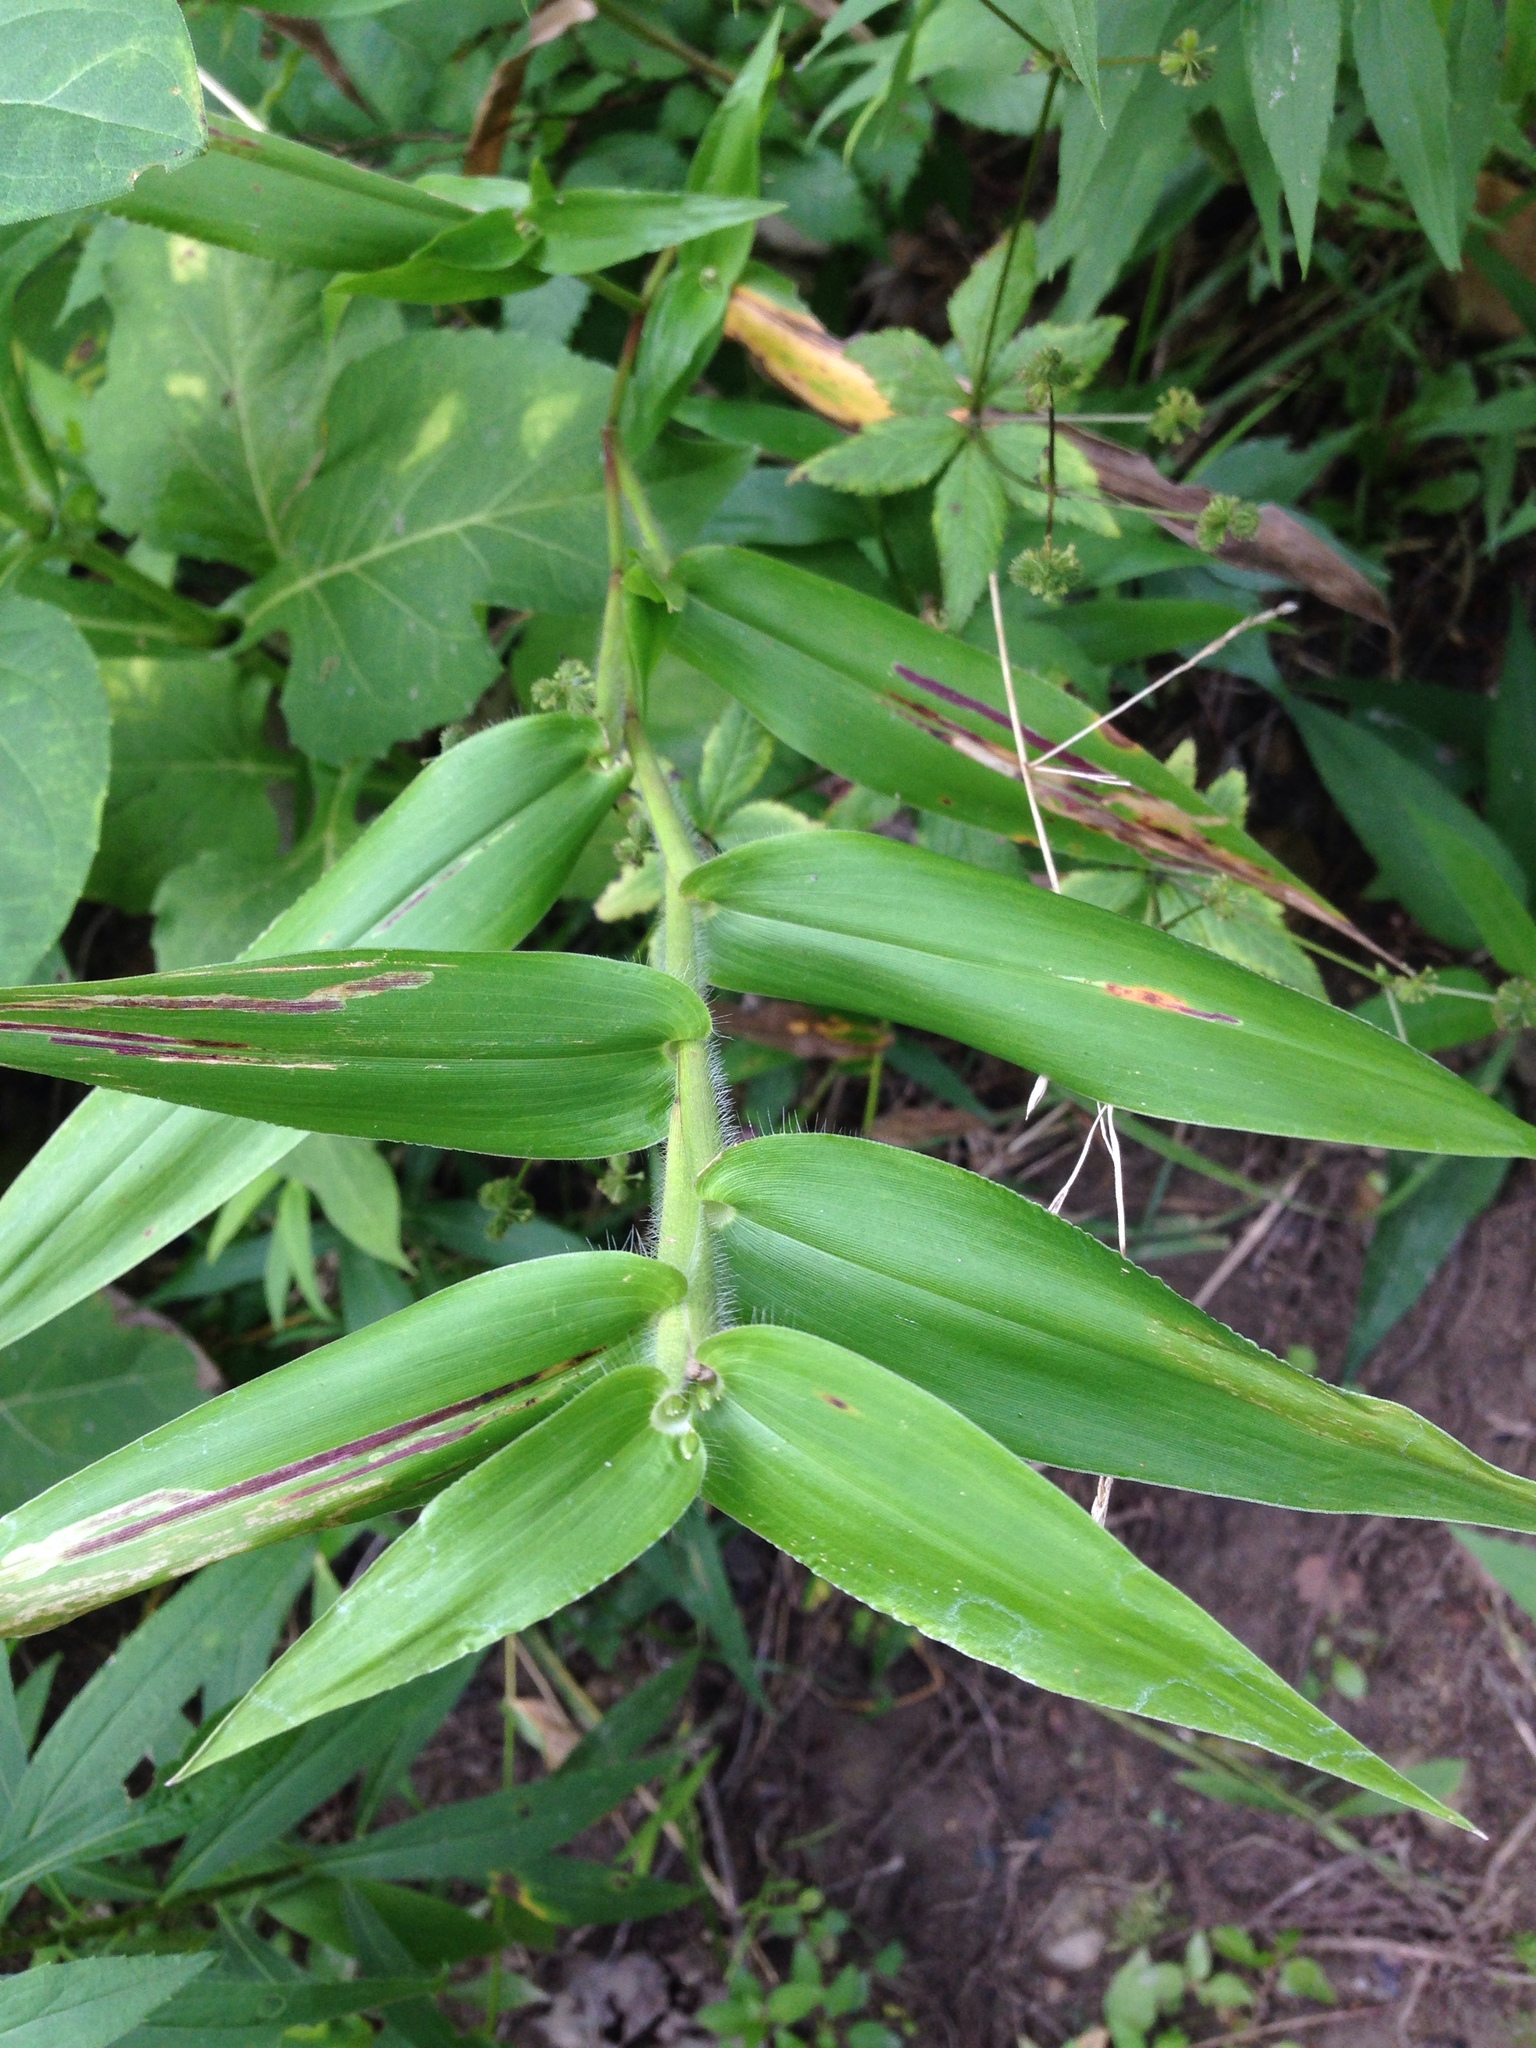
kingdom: Plantae
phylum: Tracheophyta
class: Liliopsida
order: Poales
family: Poaceae
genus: Dichanthelium
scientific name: Dichanthelium clandestinum
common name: Deer-tongue grass
